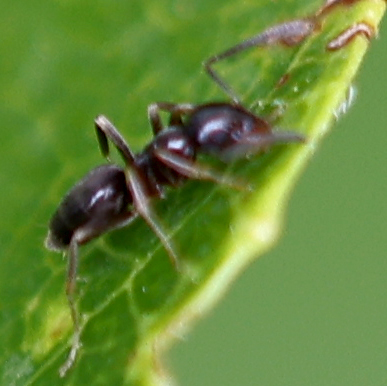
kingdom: Animalia
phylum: Arthropoda
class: Insecta
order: Hymenoptera
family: Formicidae
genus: Tapinoma
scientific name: Tapinoma sessile
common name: Odorous house ant
